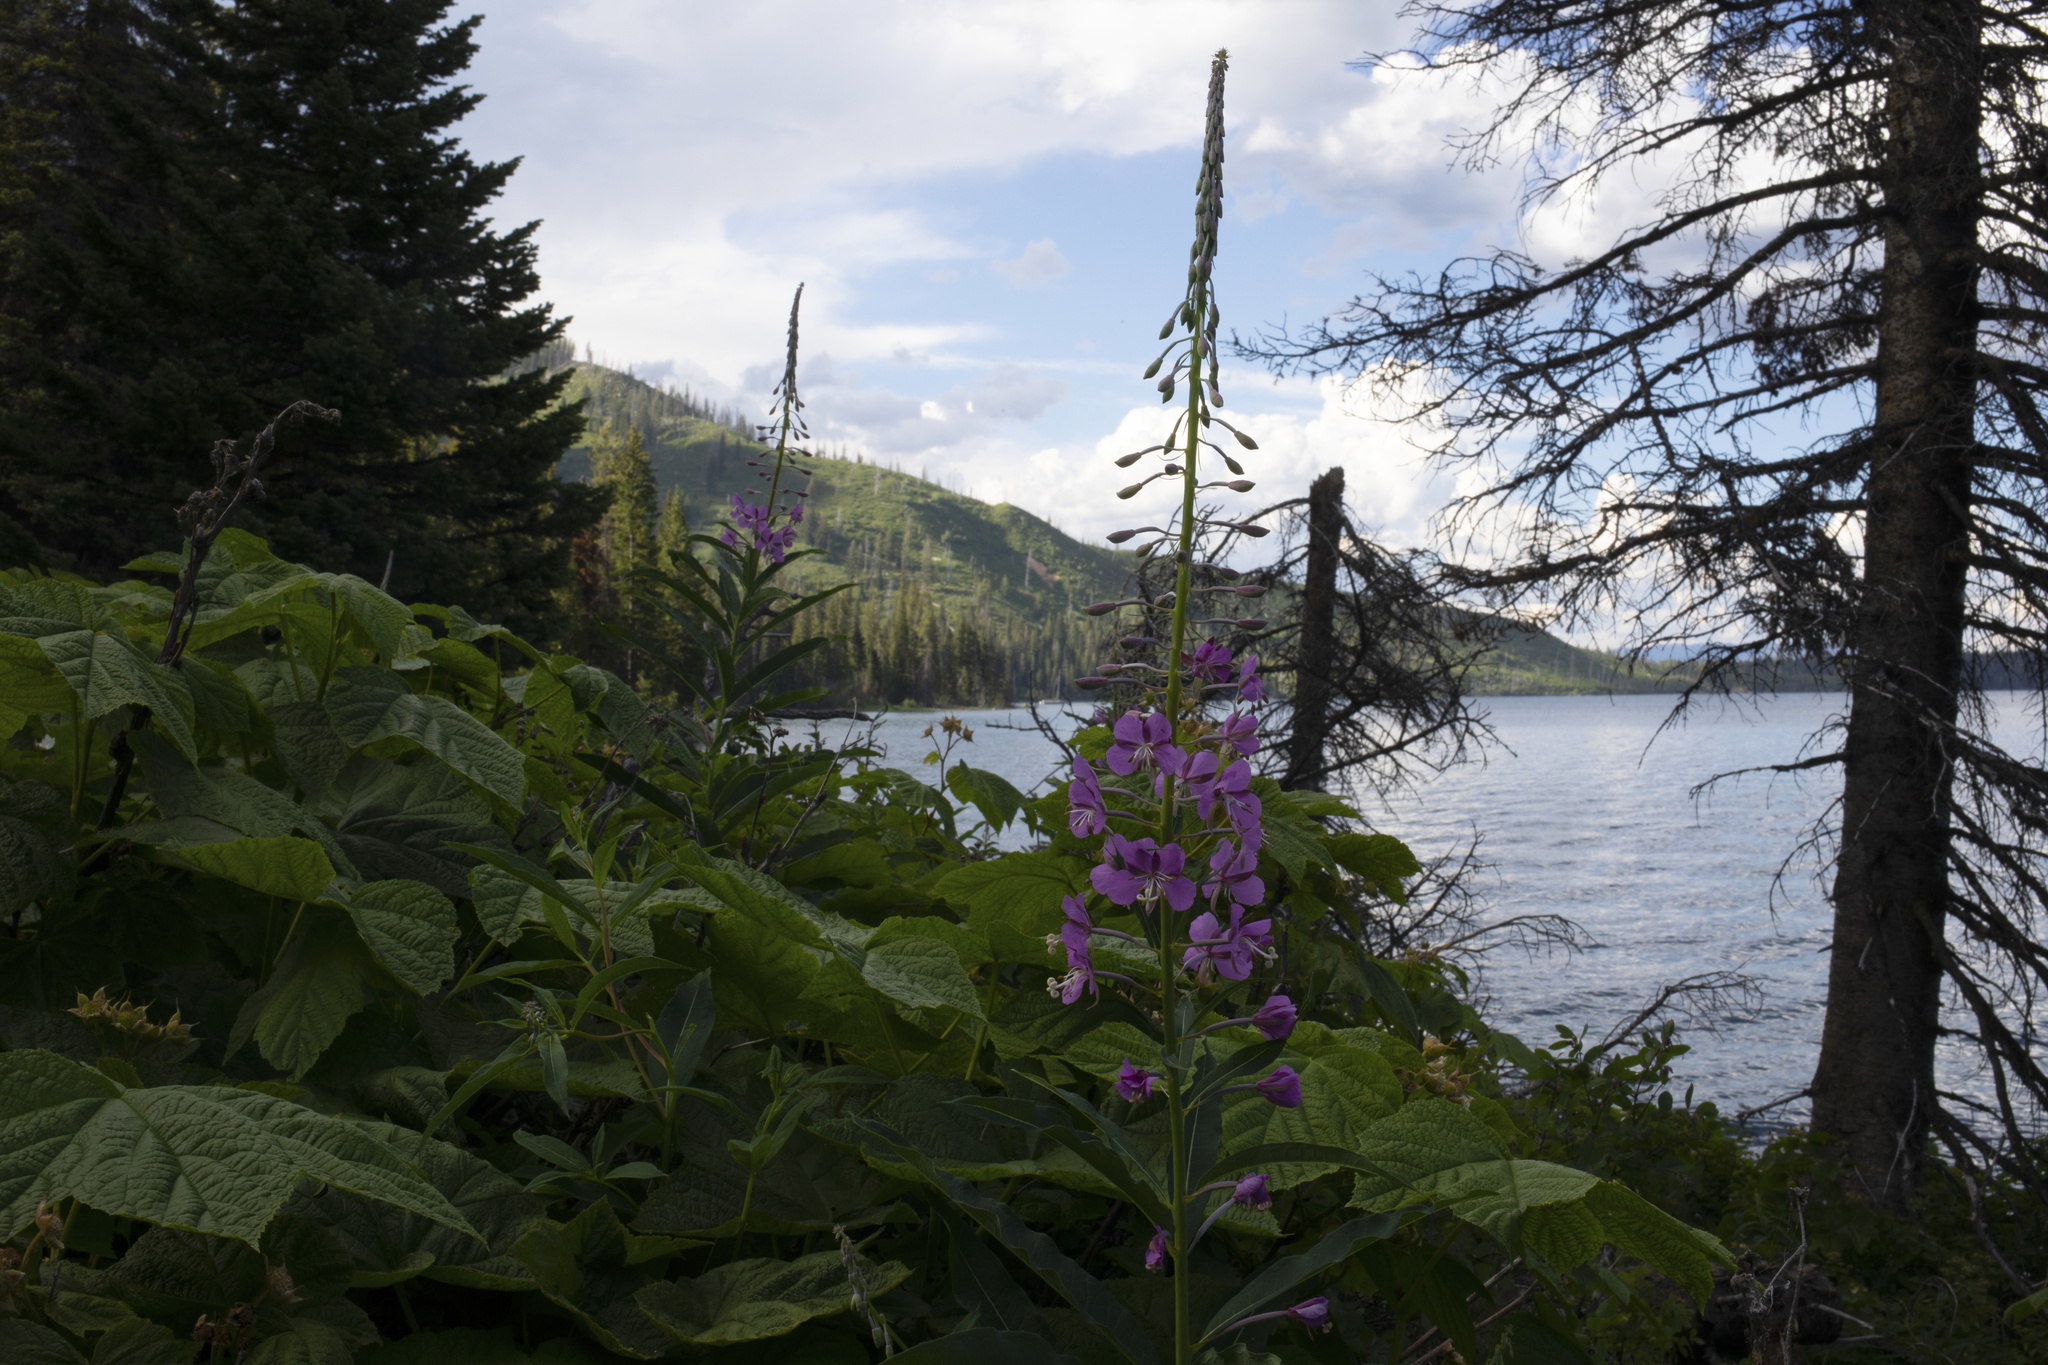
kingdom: Plantae
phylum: Tracheophyta
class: Magnoliopsida
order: Myrtales
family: Onagraceae
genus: Chamaenerion
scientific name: Chamaenerion angustifolium
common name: Fireweed
